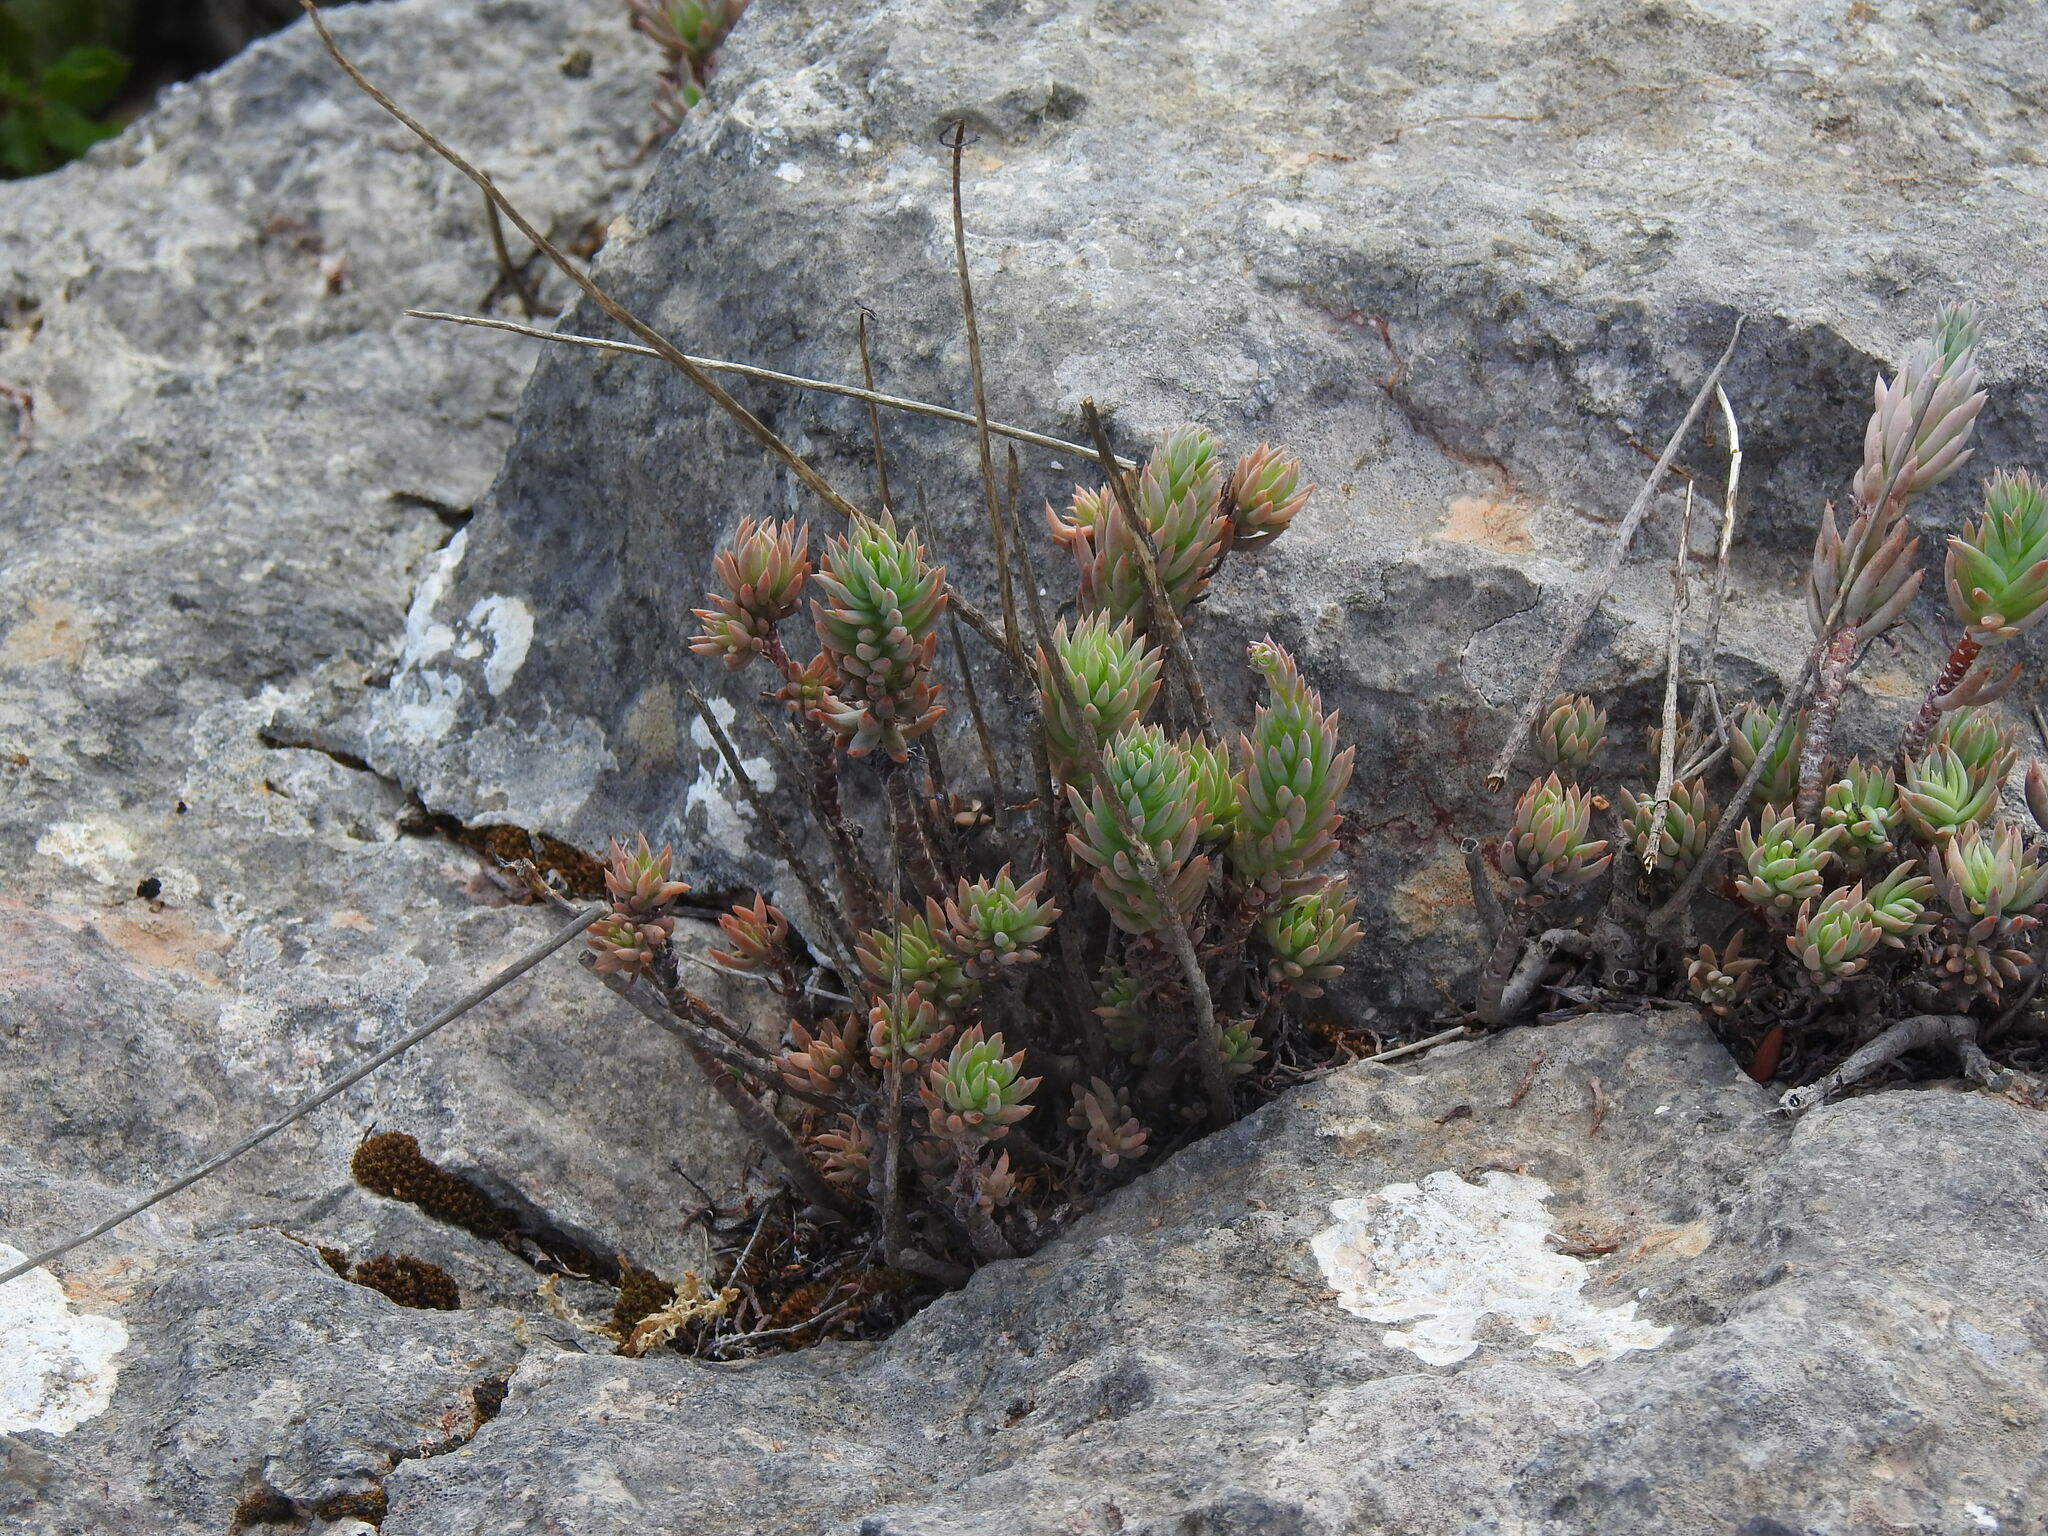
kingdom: Plantae
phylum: Tracheophyta
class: Magnoliopsida
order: Saxifragales
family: Crassulaceae
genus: Petrosedum
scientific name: Petrosedum sediforme
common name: Pale stonecrop
